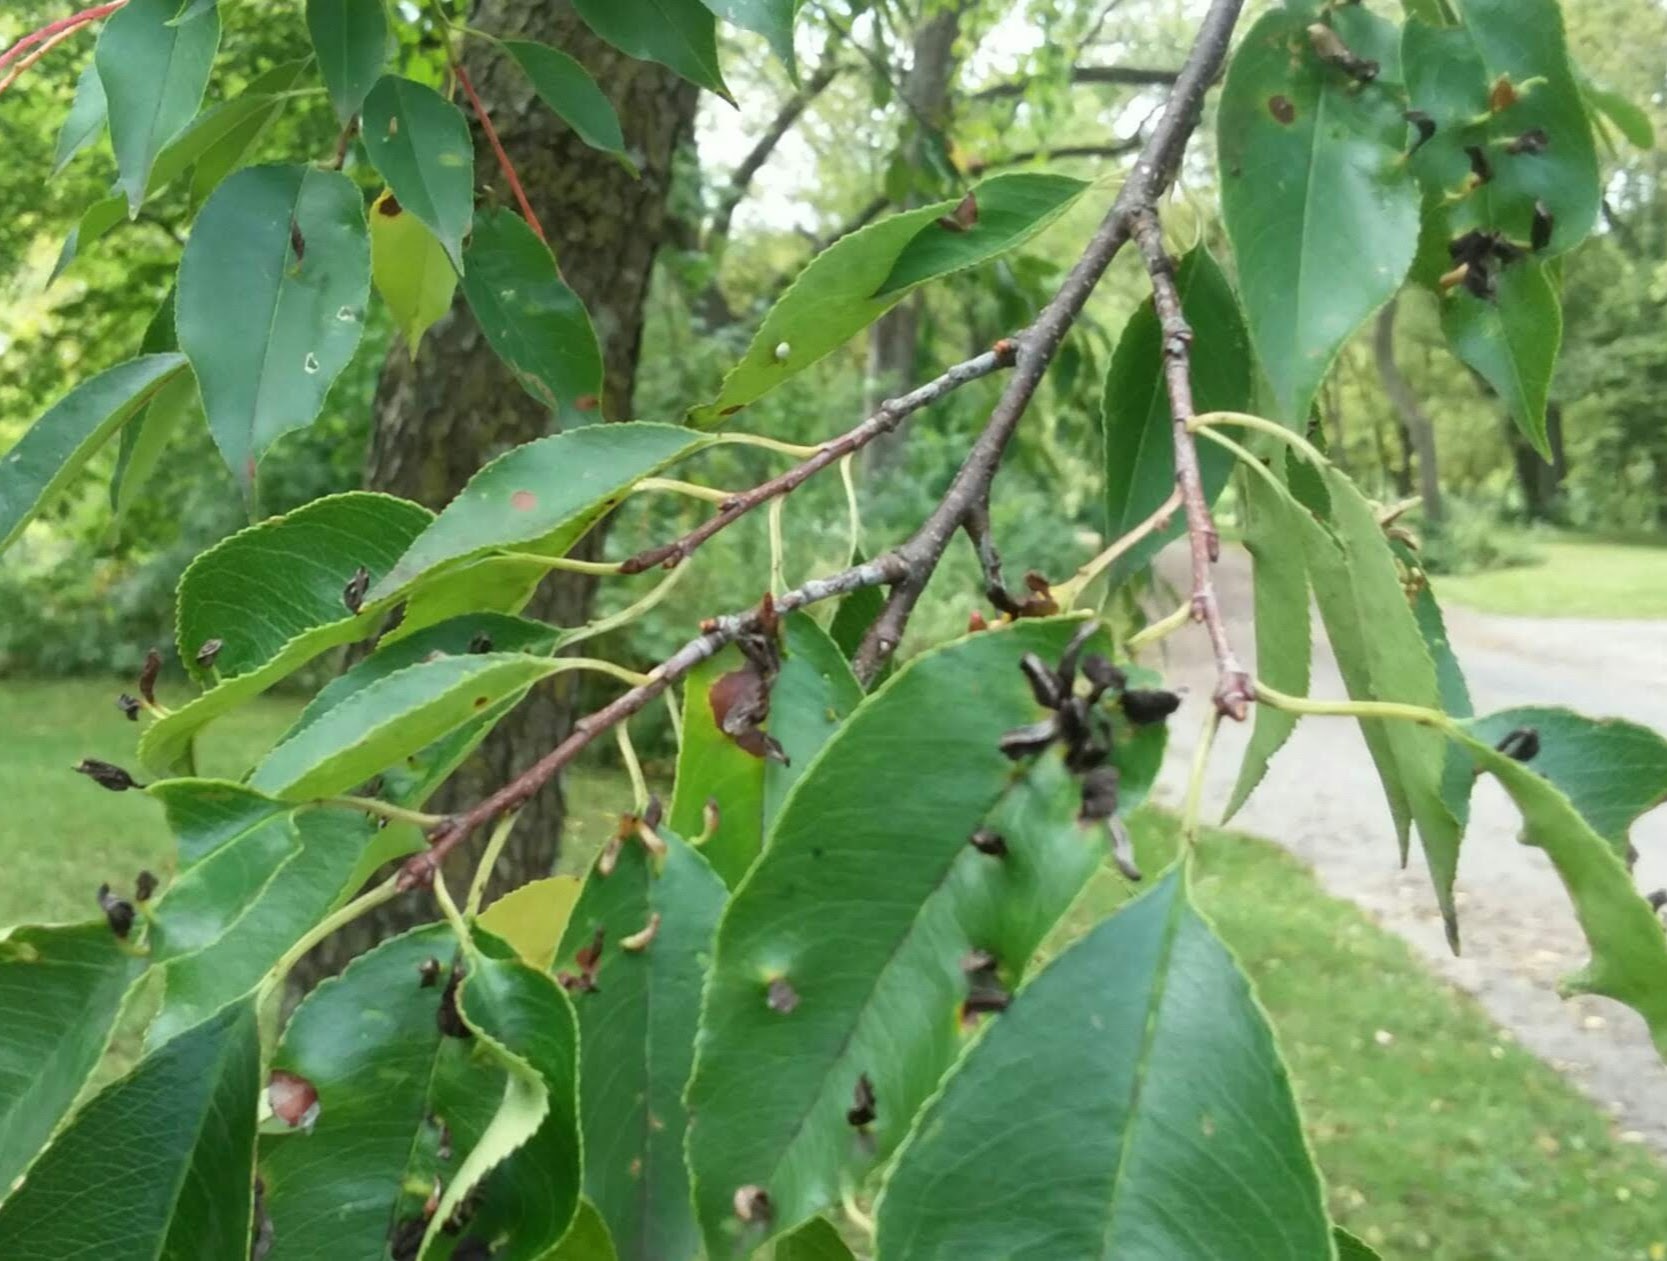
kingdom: Animalia
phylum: Arthropoda
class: Arachnida
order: Trombidiformes
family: Eriophyidae
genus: Eriophyes
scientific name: Eriophyes
